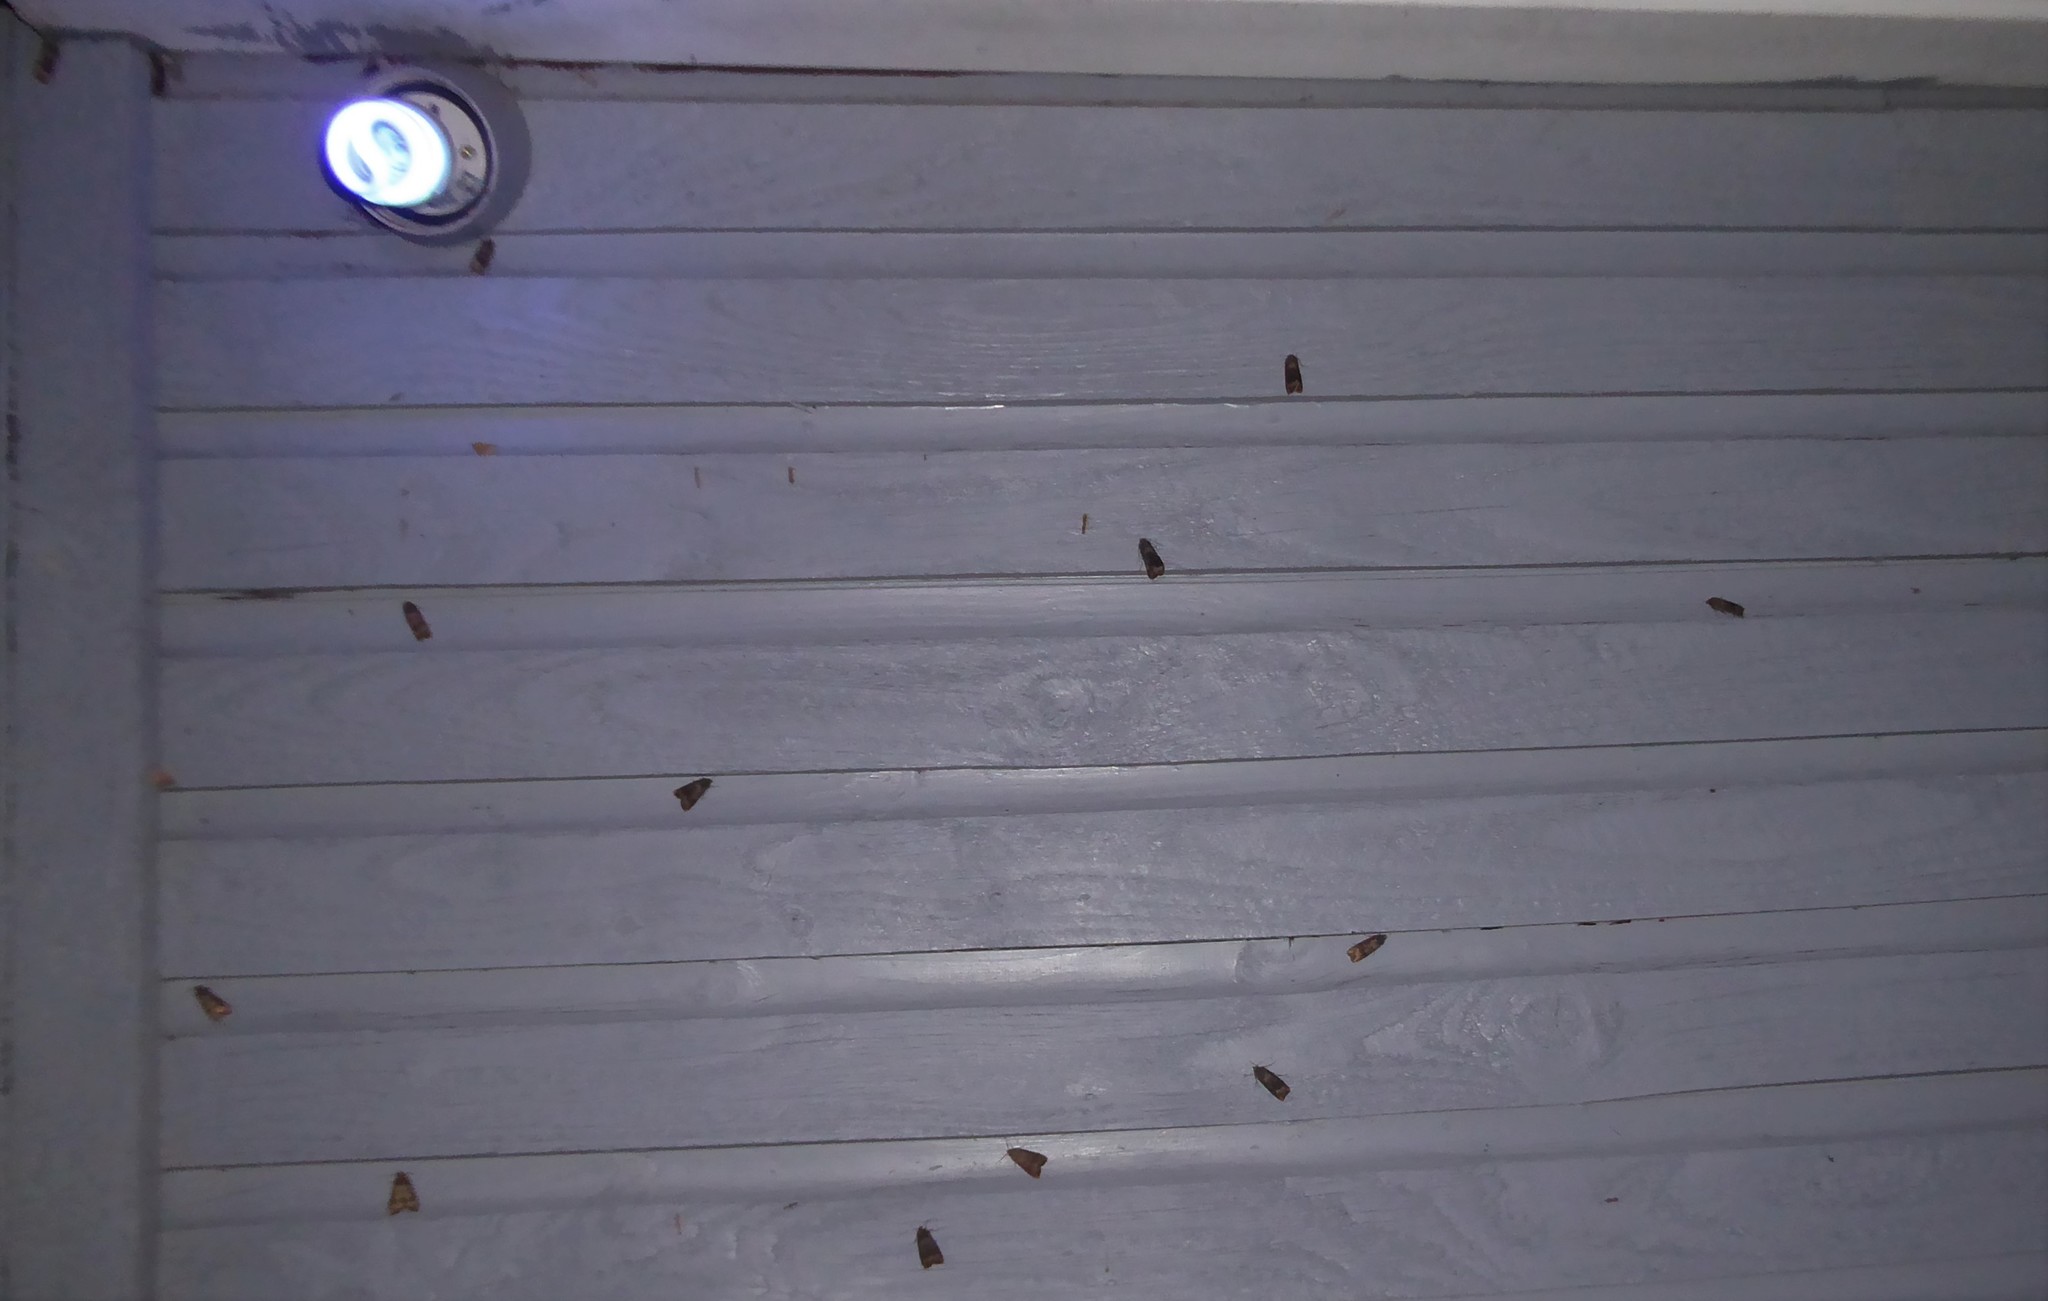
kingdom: Animalia
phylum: Arthropoda
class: Insecta
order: Lepidoptera
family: Noctuidae
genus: Agrotis
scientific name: Agrotis ipsilon
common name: Dark sword-grass
